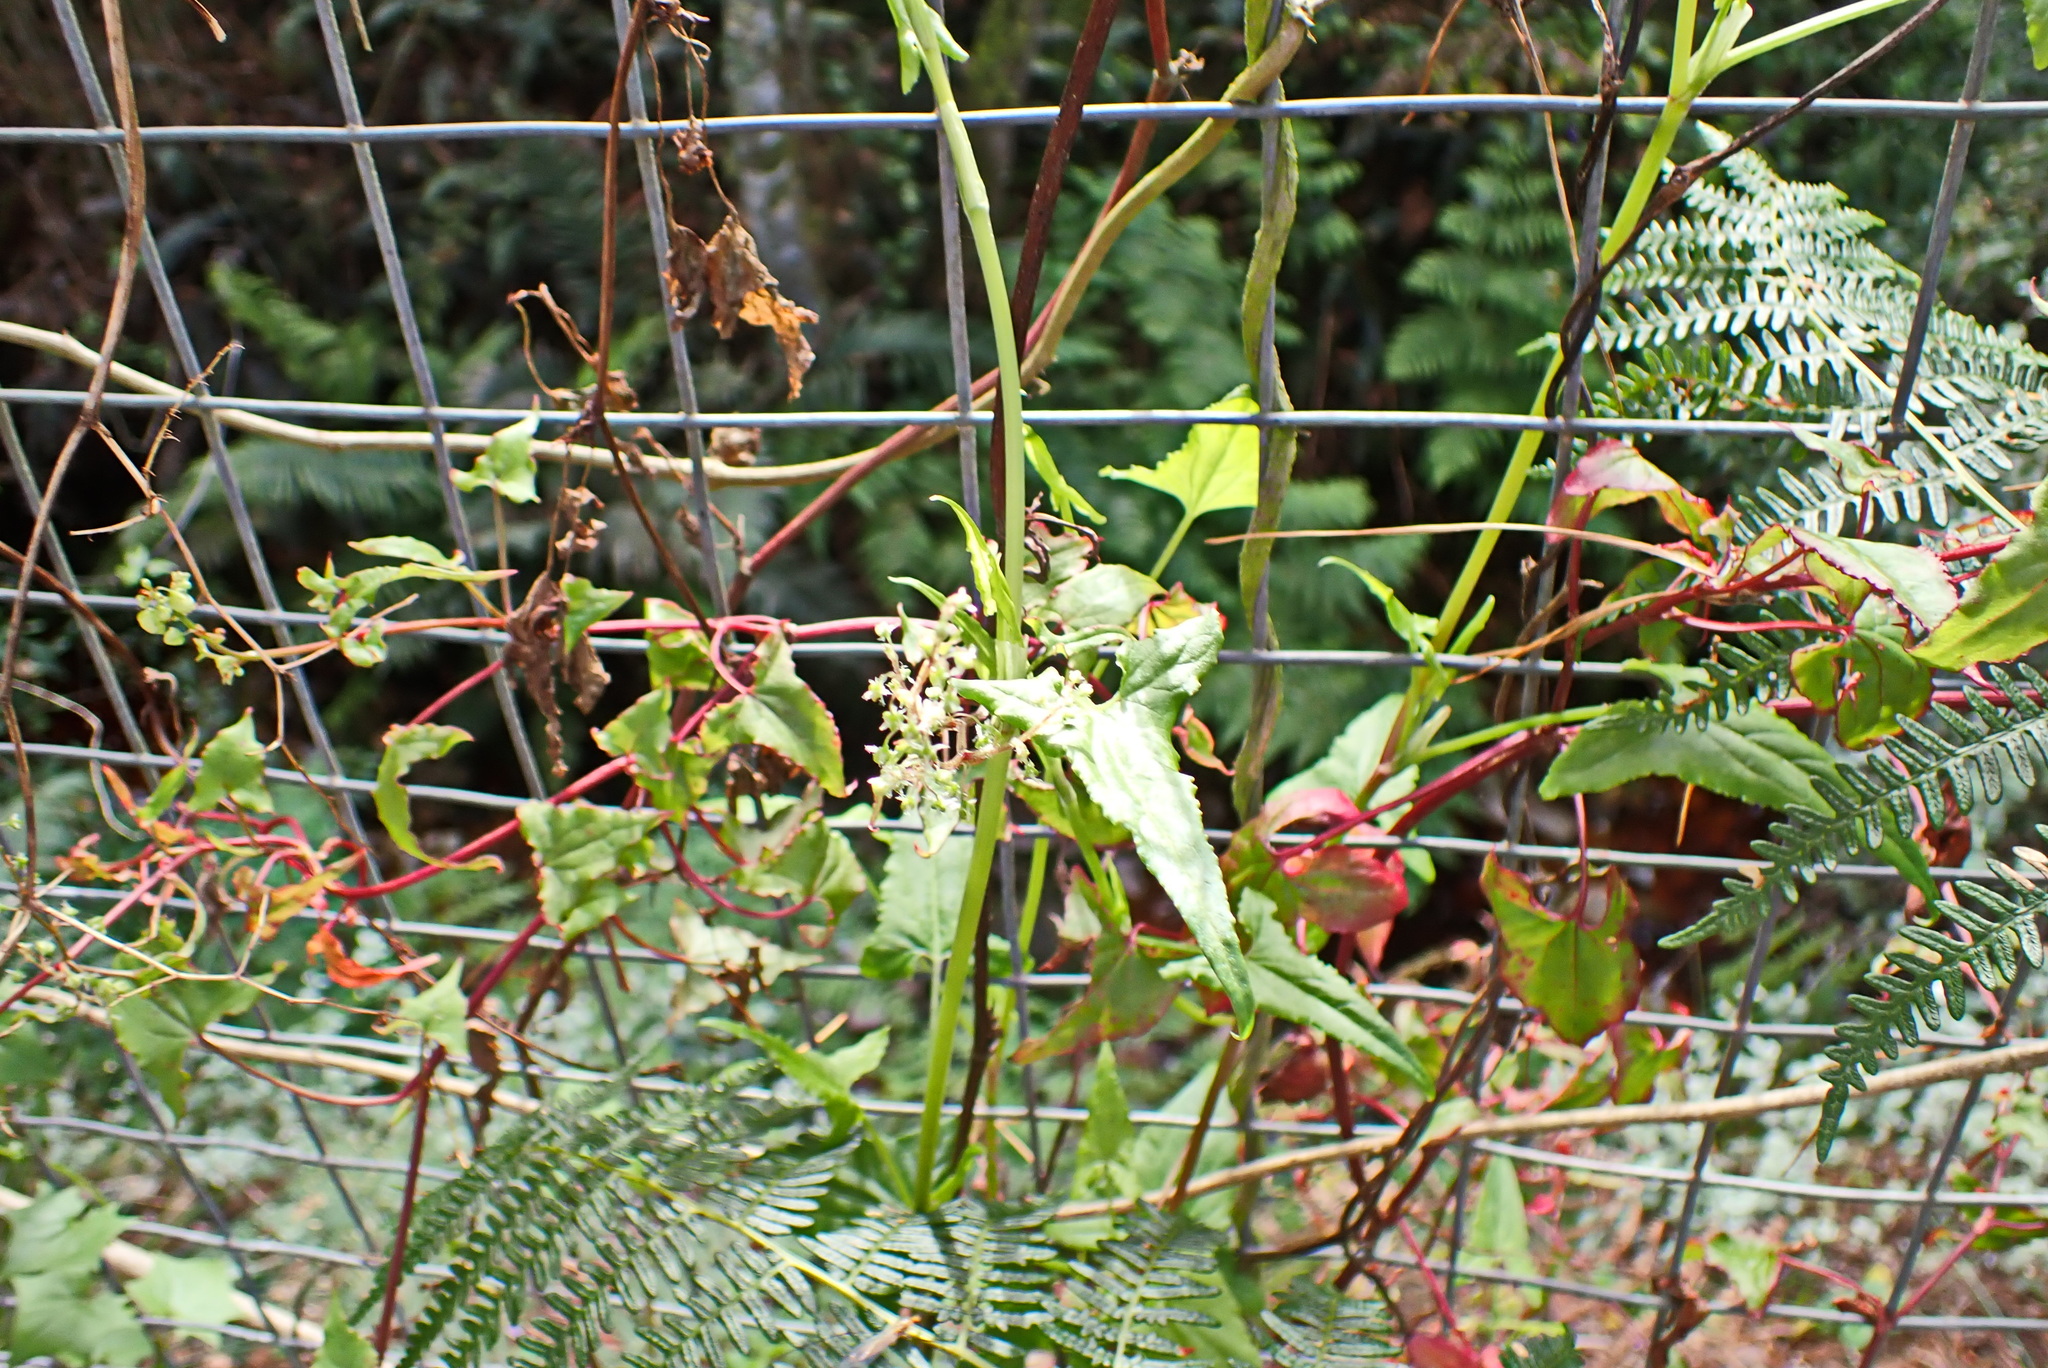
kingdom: Plantae
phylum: Tracheophyta
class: Magnoliopsida
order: Caryophyllales
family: Polygonaceae
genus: Rumex
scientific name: Rumex sagittatus
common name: Climbing dock
